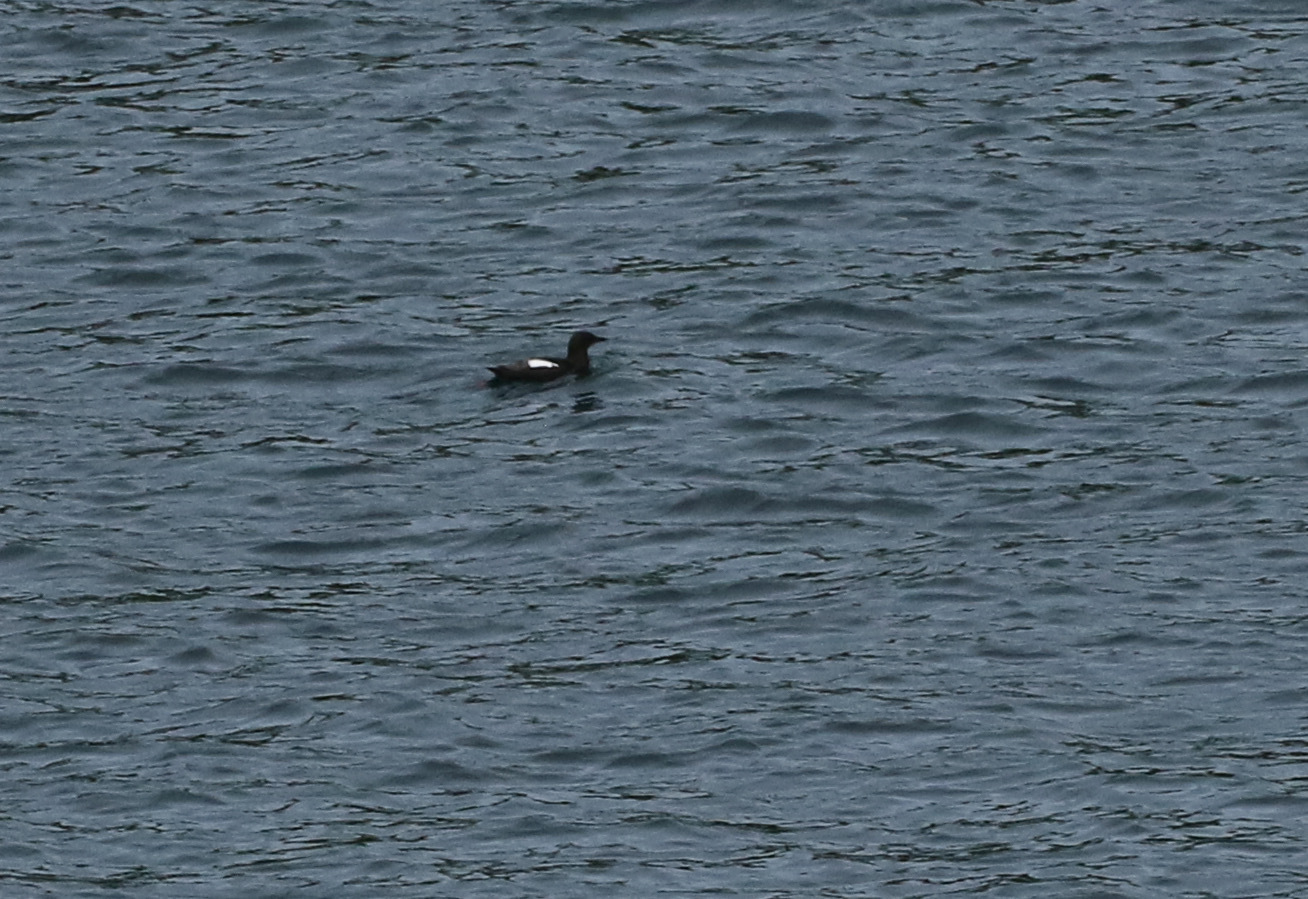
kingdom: Animalia
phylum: Chordata
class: Aves
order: Charadriiformes
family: Alcidae
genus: Cepphus
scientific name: Cepphus grylle
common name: Black guillemot
